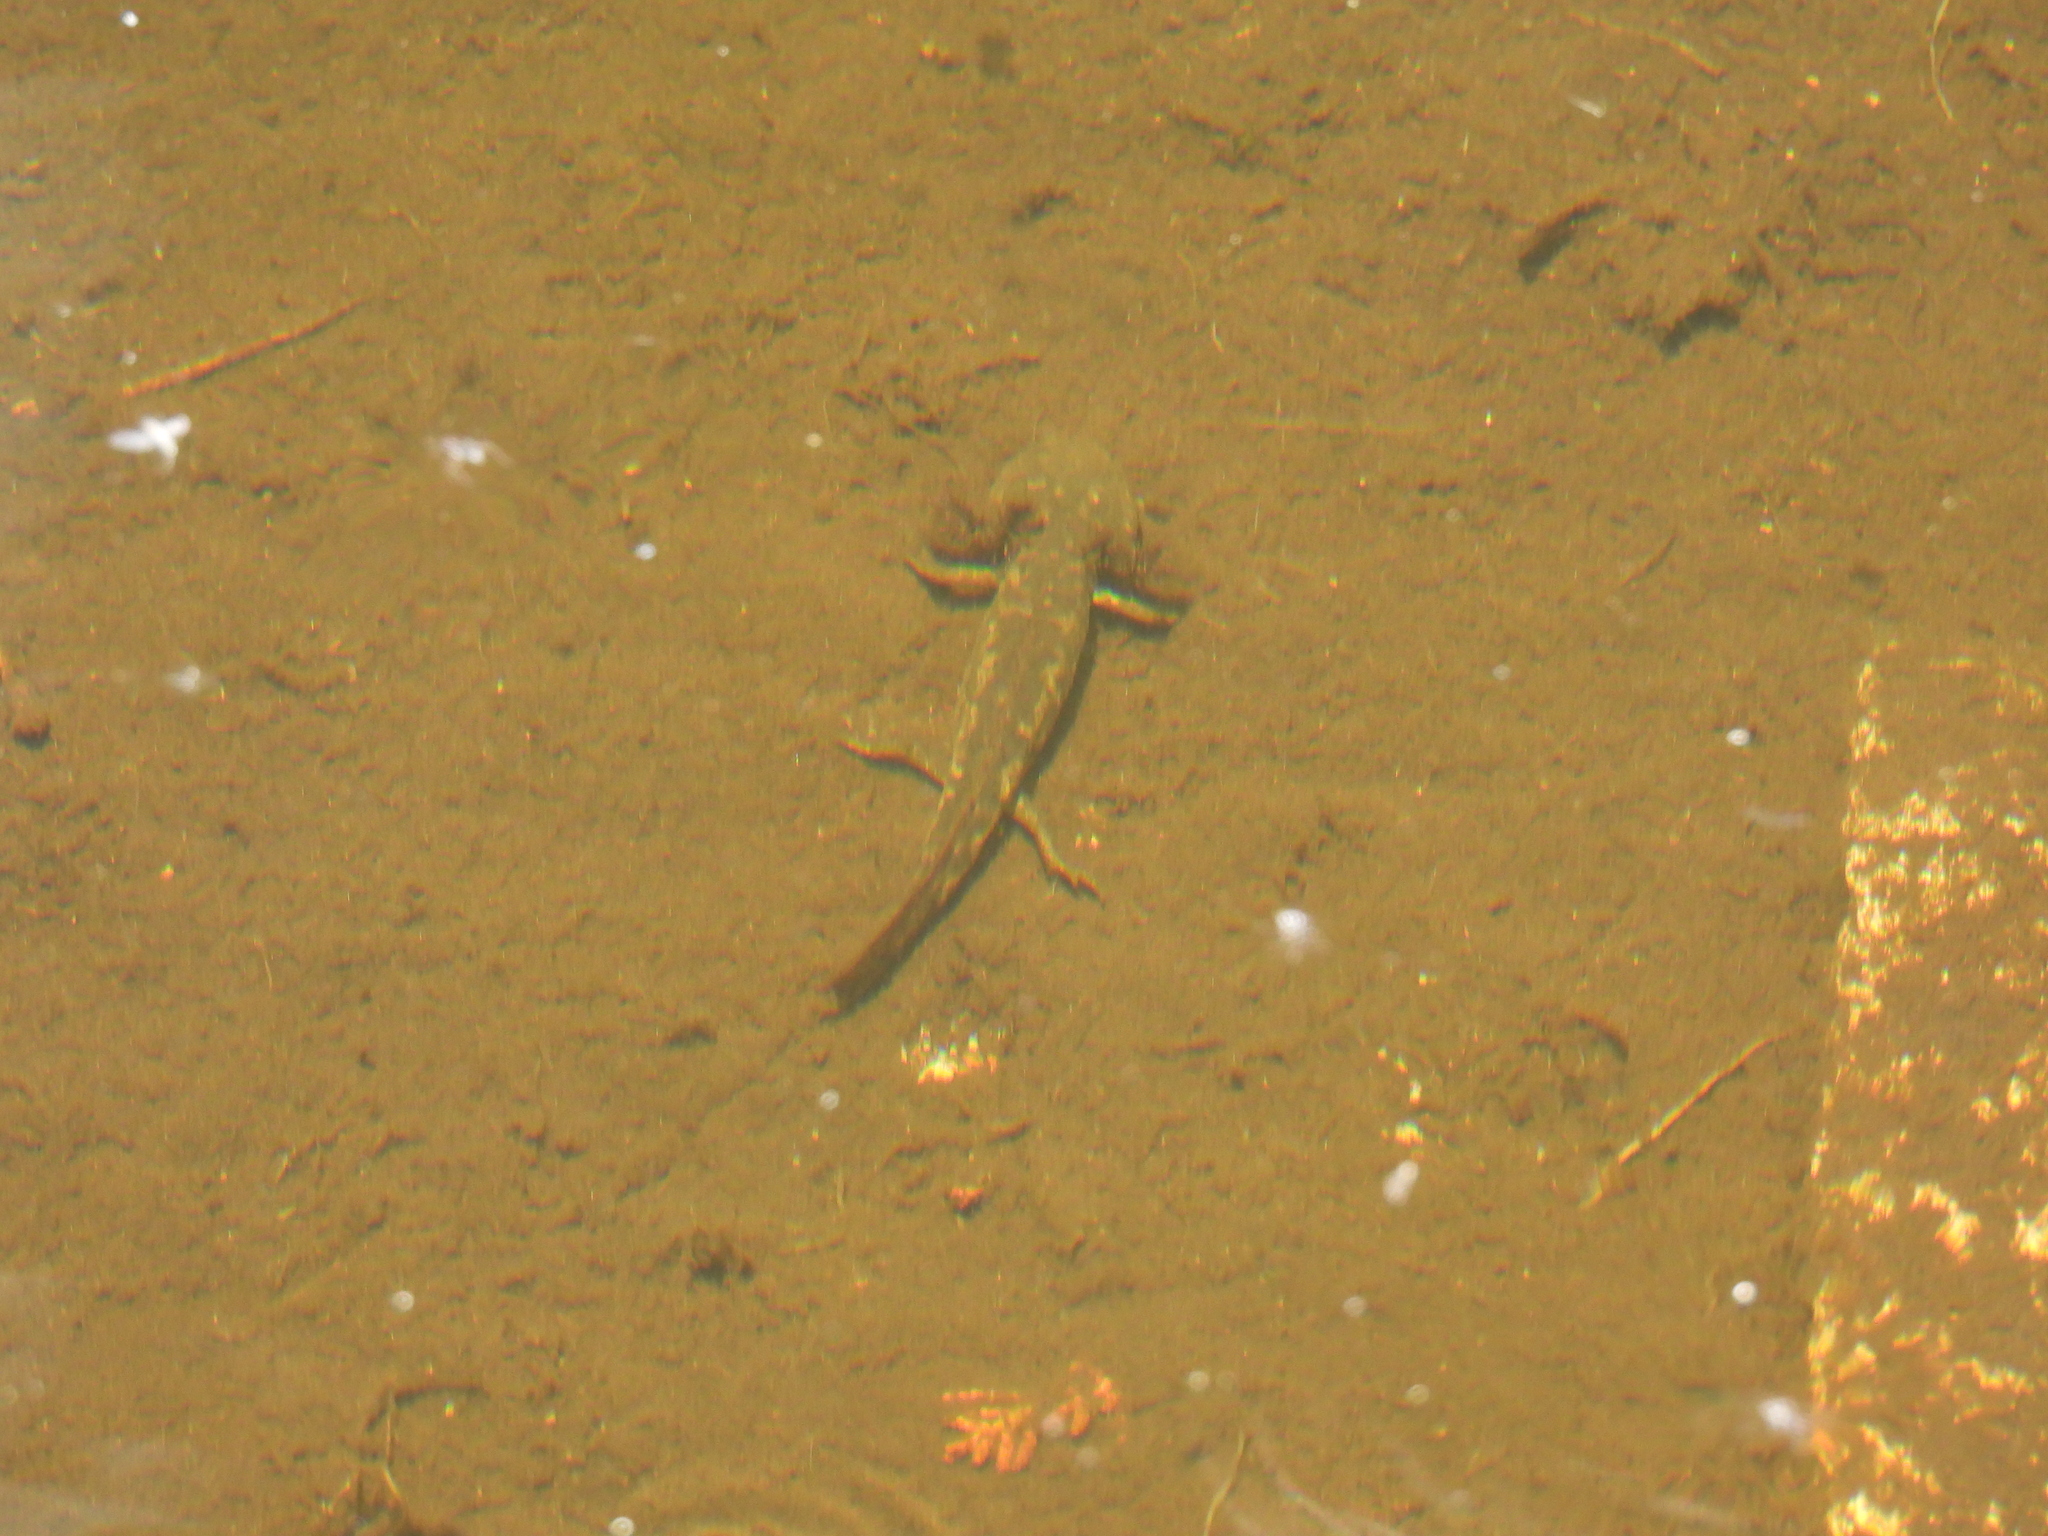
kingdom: Animalia
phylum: Chordata
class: Amphibia
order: Caudata
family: Ambystomatidae
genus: Ambystoma
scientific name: Ambystoma rivulare
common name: Michoacan stream salamander
